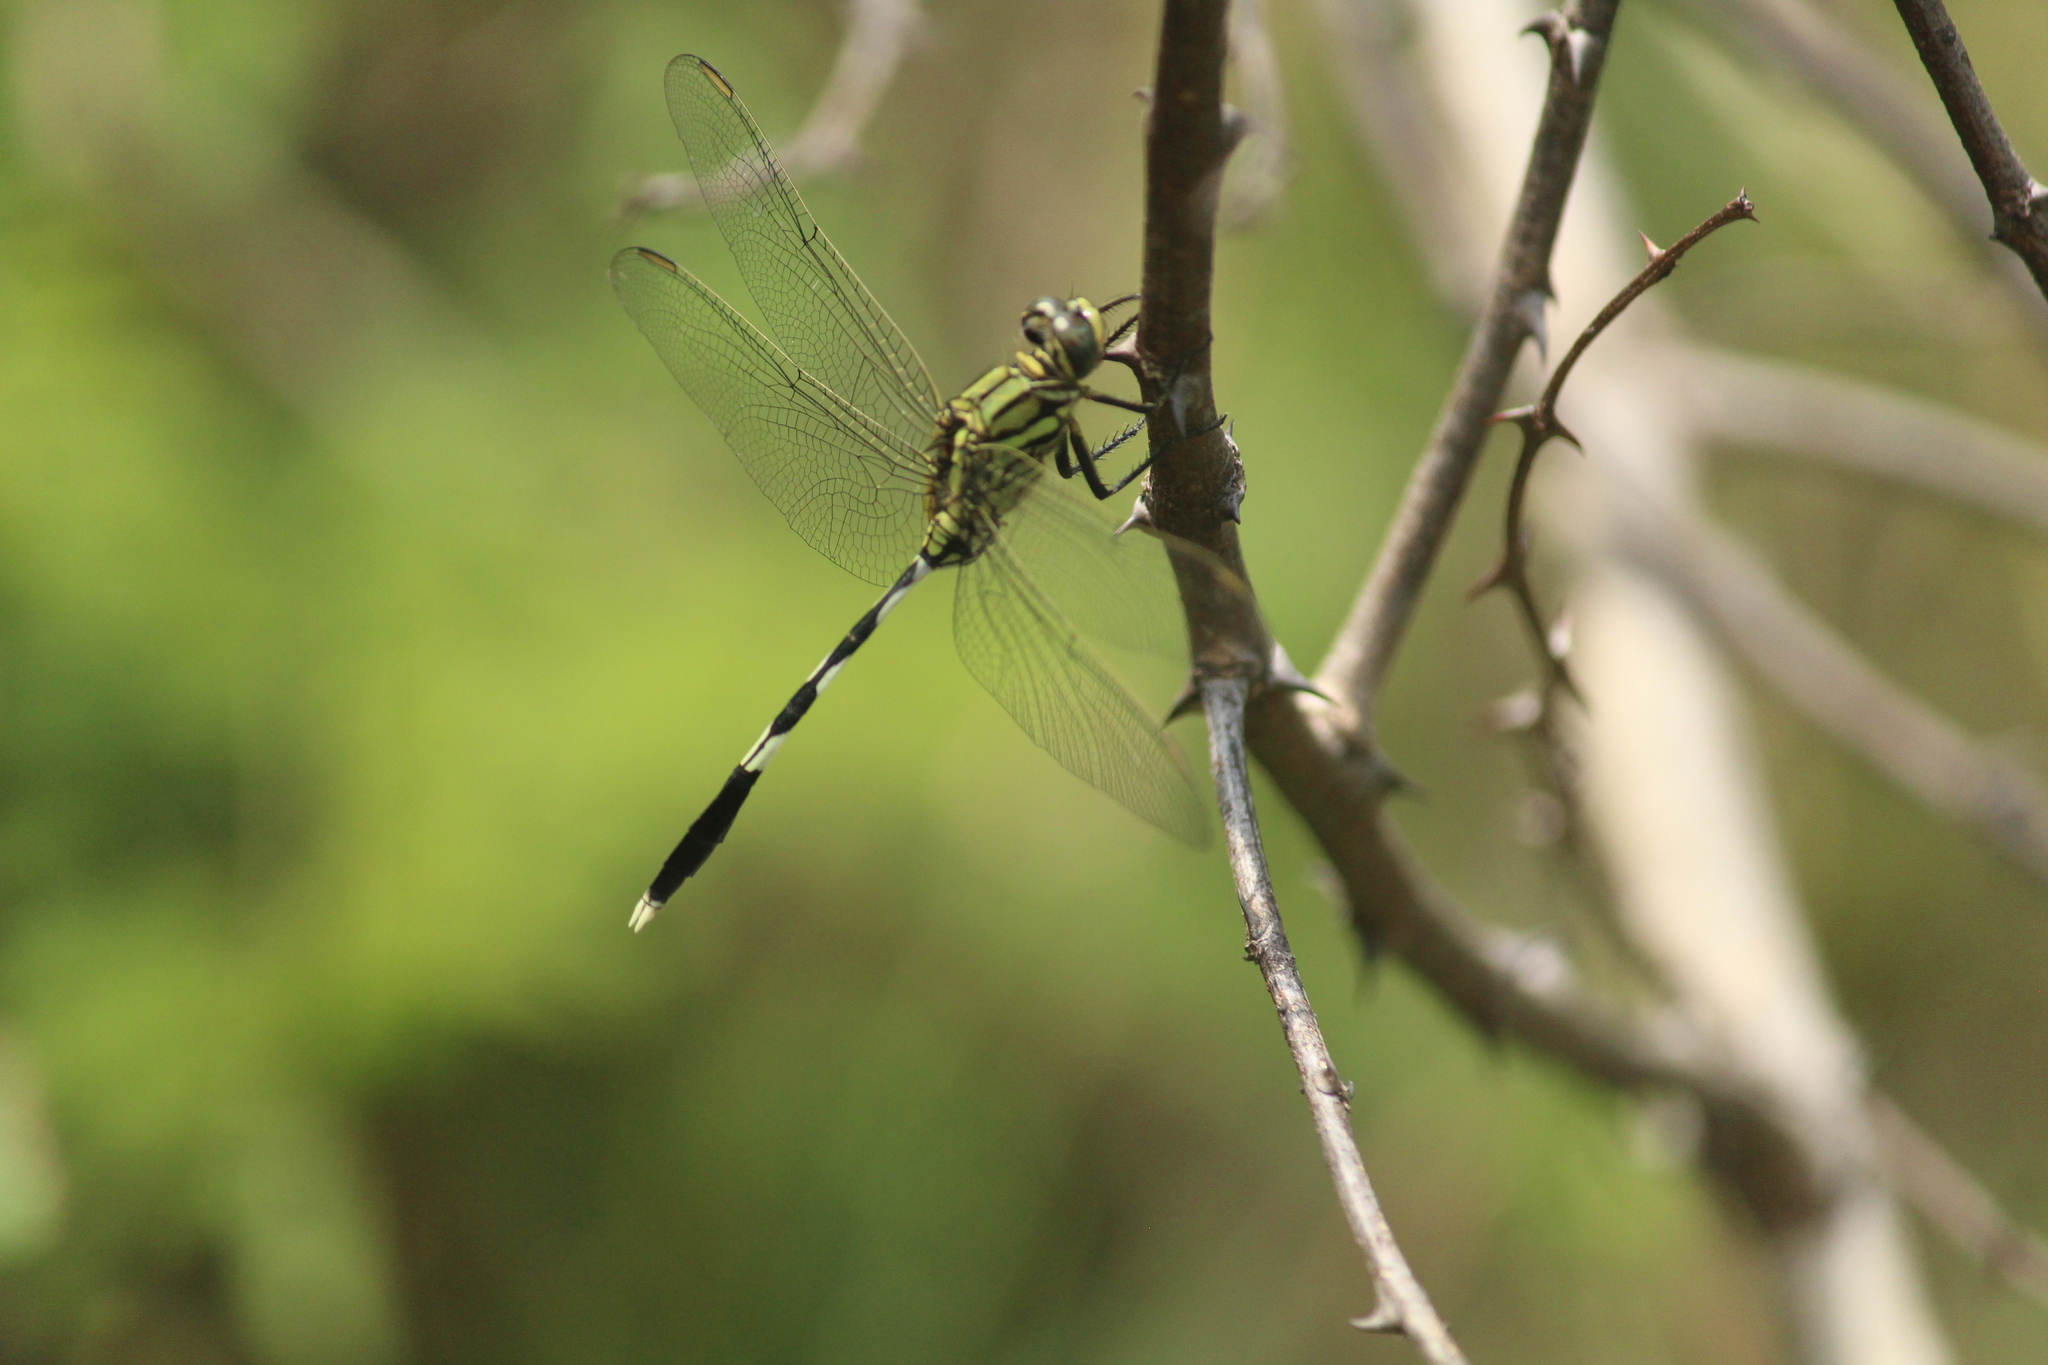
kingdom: Animalia
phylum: Arthropoda
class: Insecta
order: Odonata
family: Libellulidae
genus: Orthetrum
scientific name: Orthetrum sabina
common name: Slender skimmer
